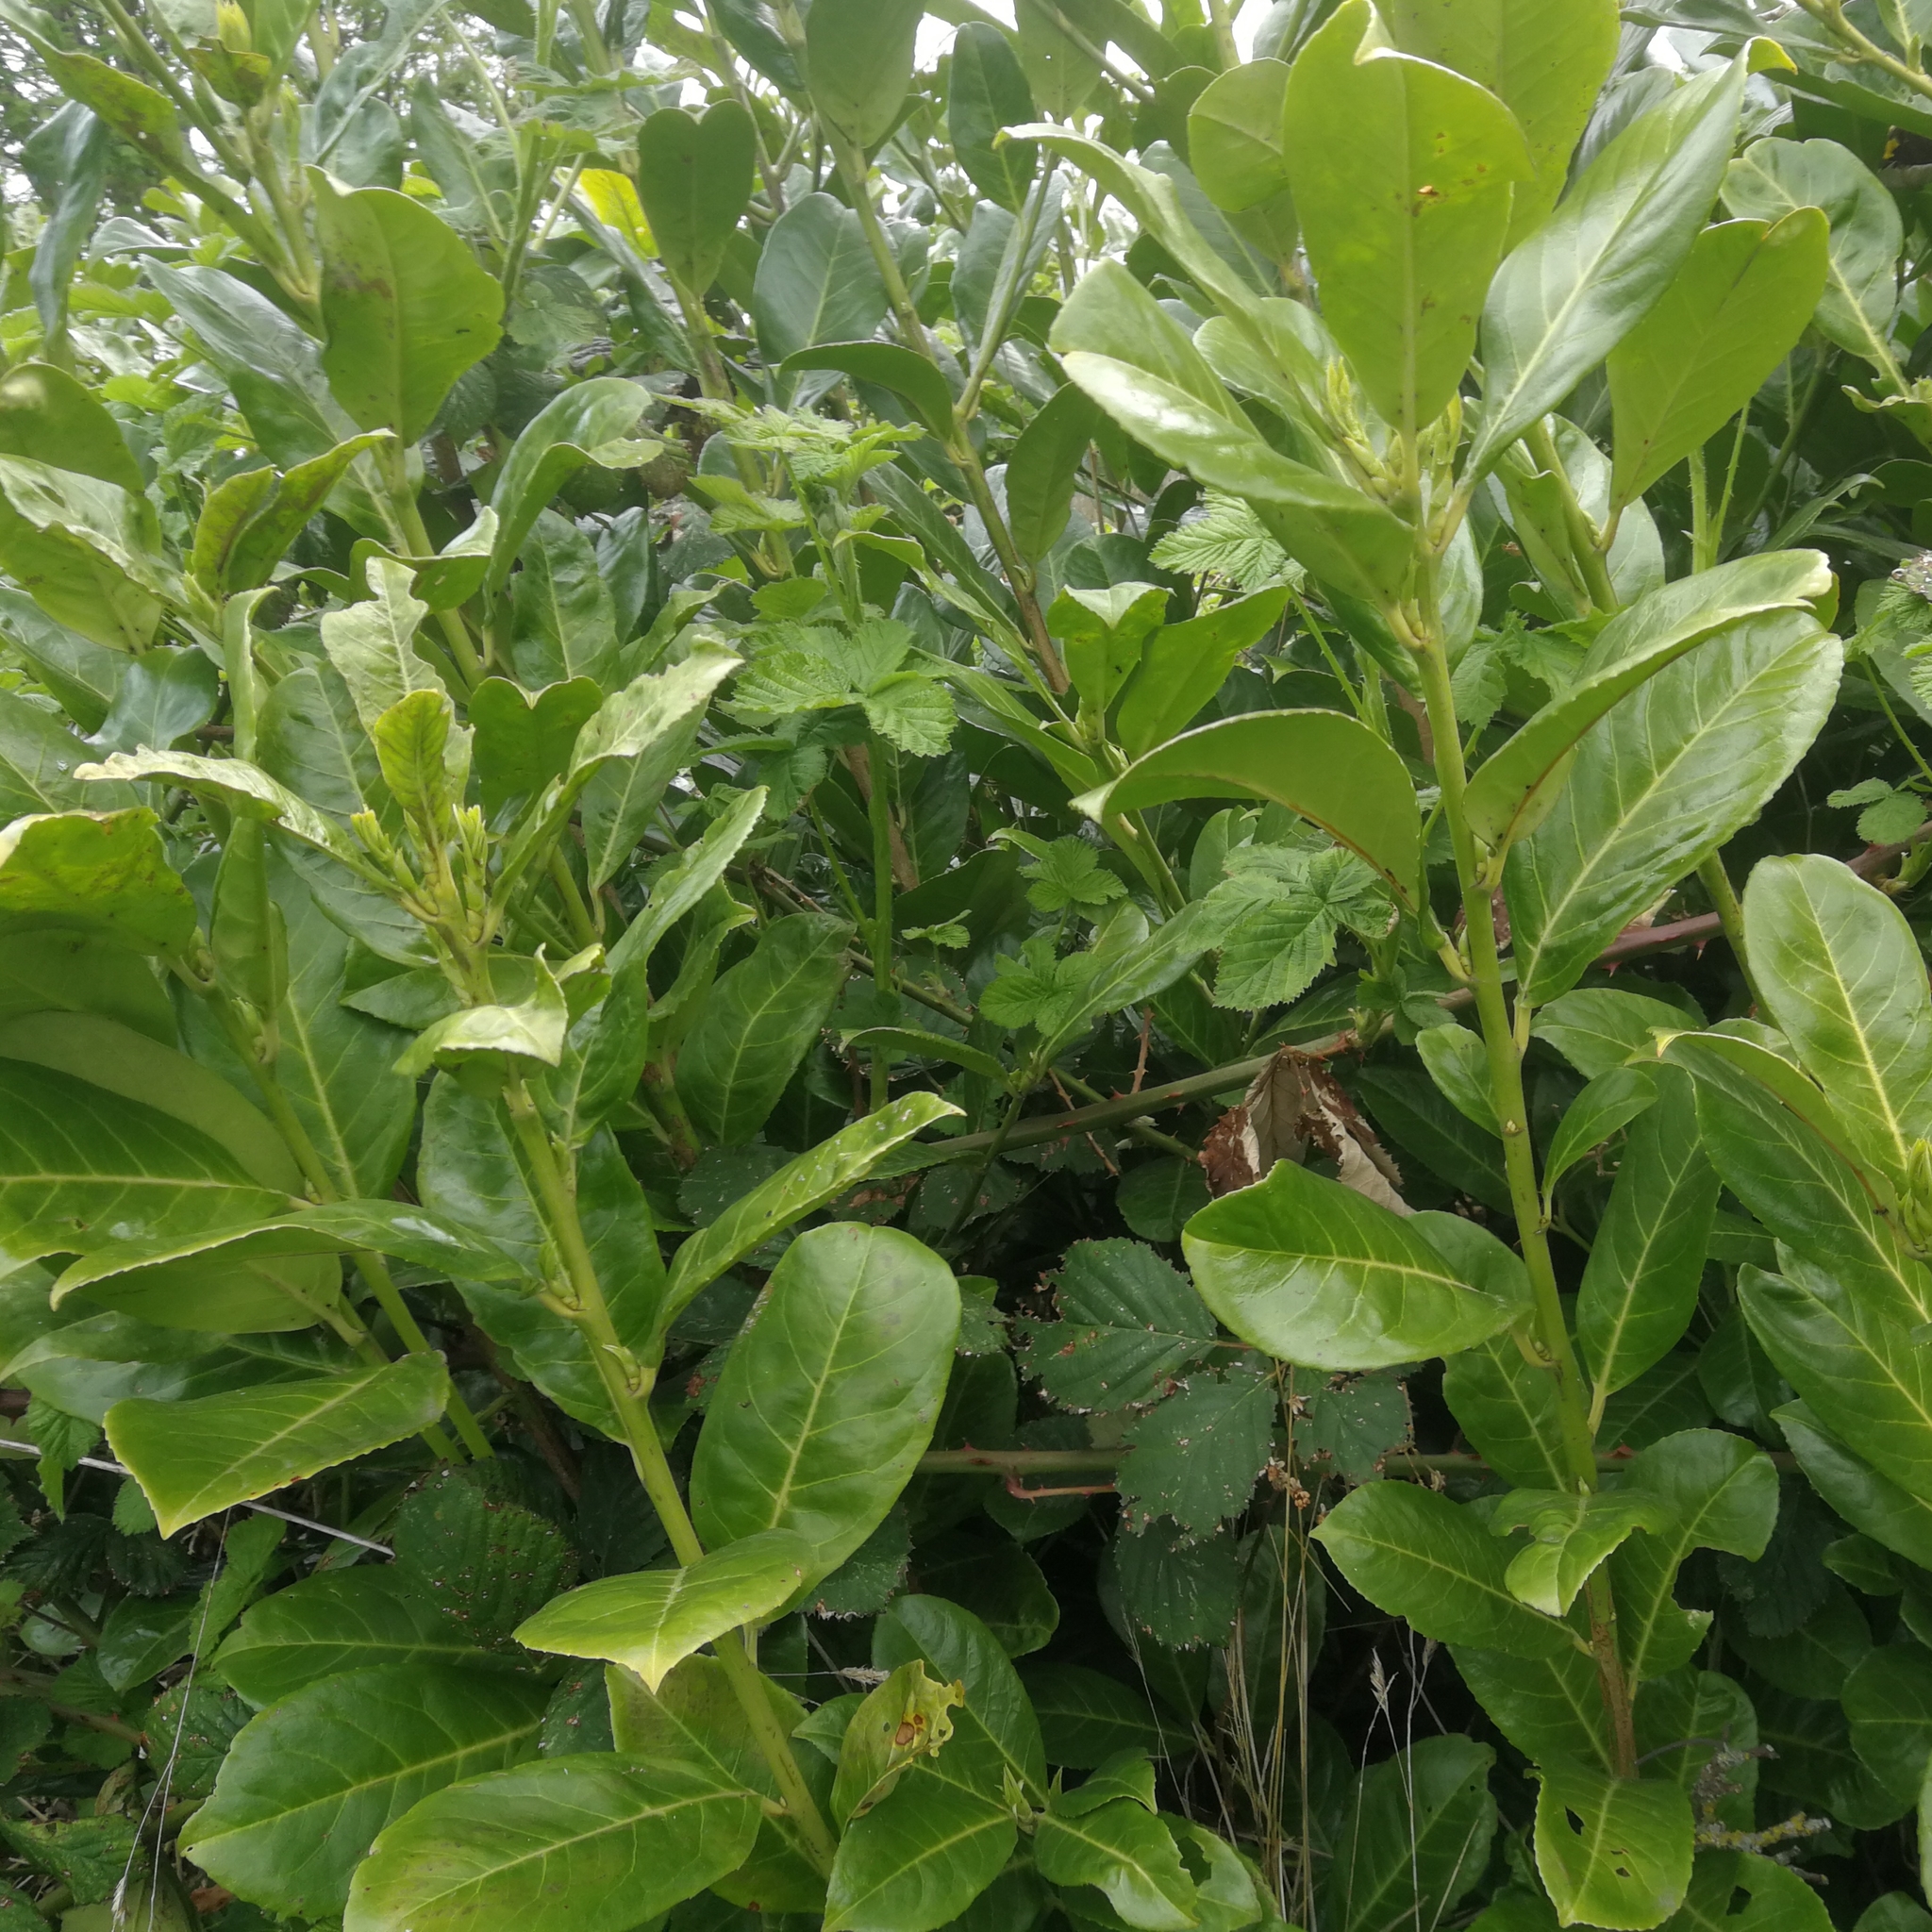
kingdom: Plantae
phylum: Tracheophyta
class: Magnoliopsida
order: Rosales
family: Rosaceae
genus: Prunus
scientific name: Prunus laurocerasus
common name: Cherry laurel
